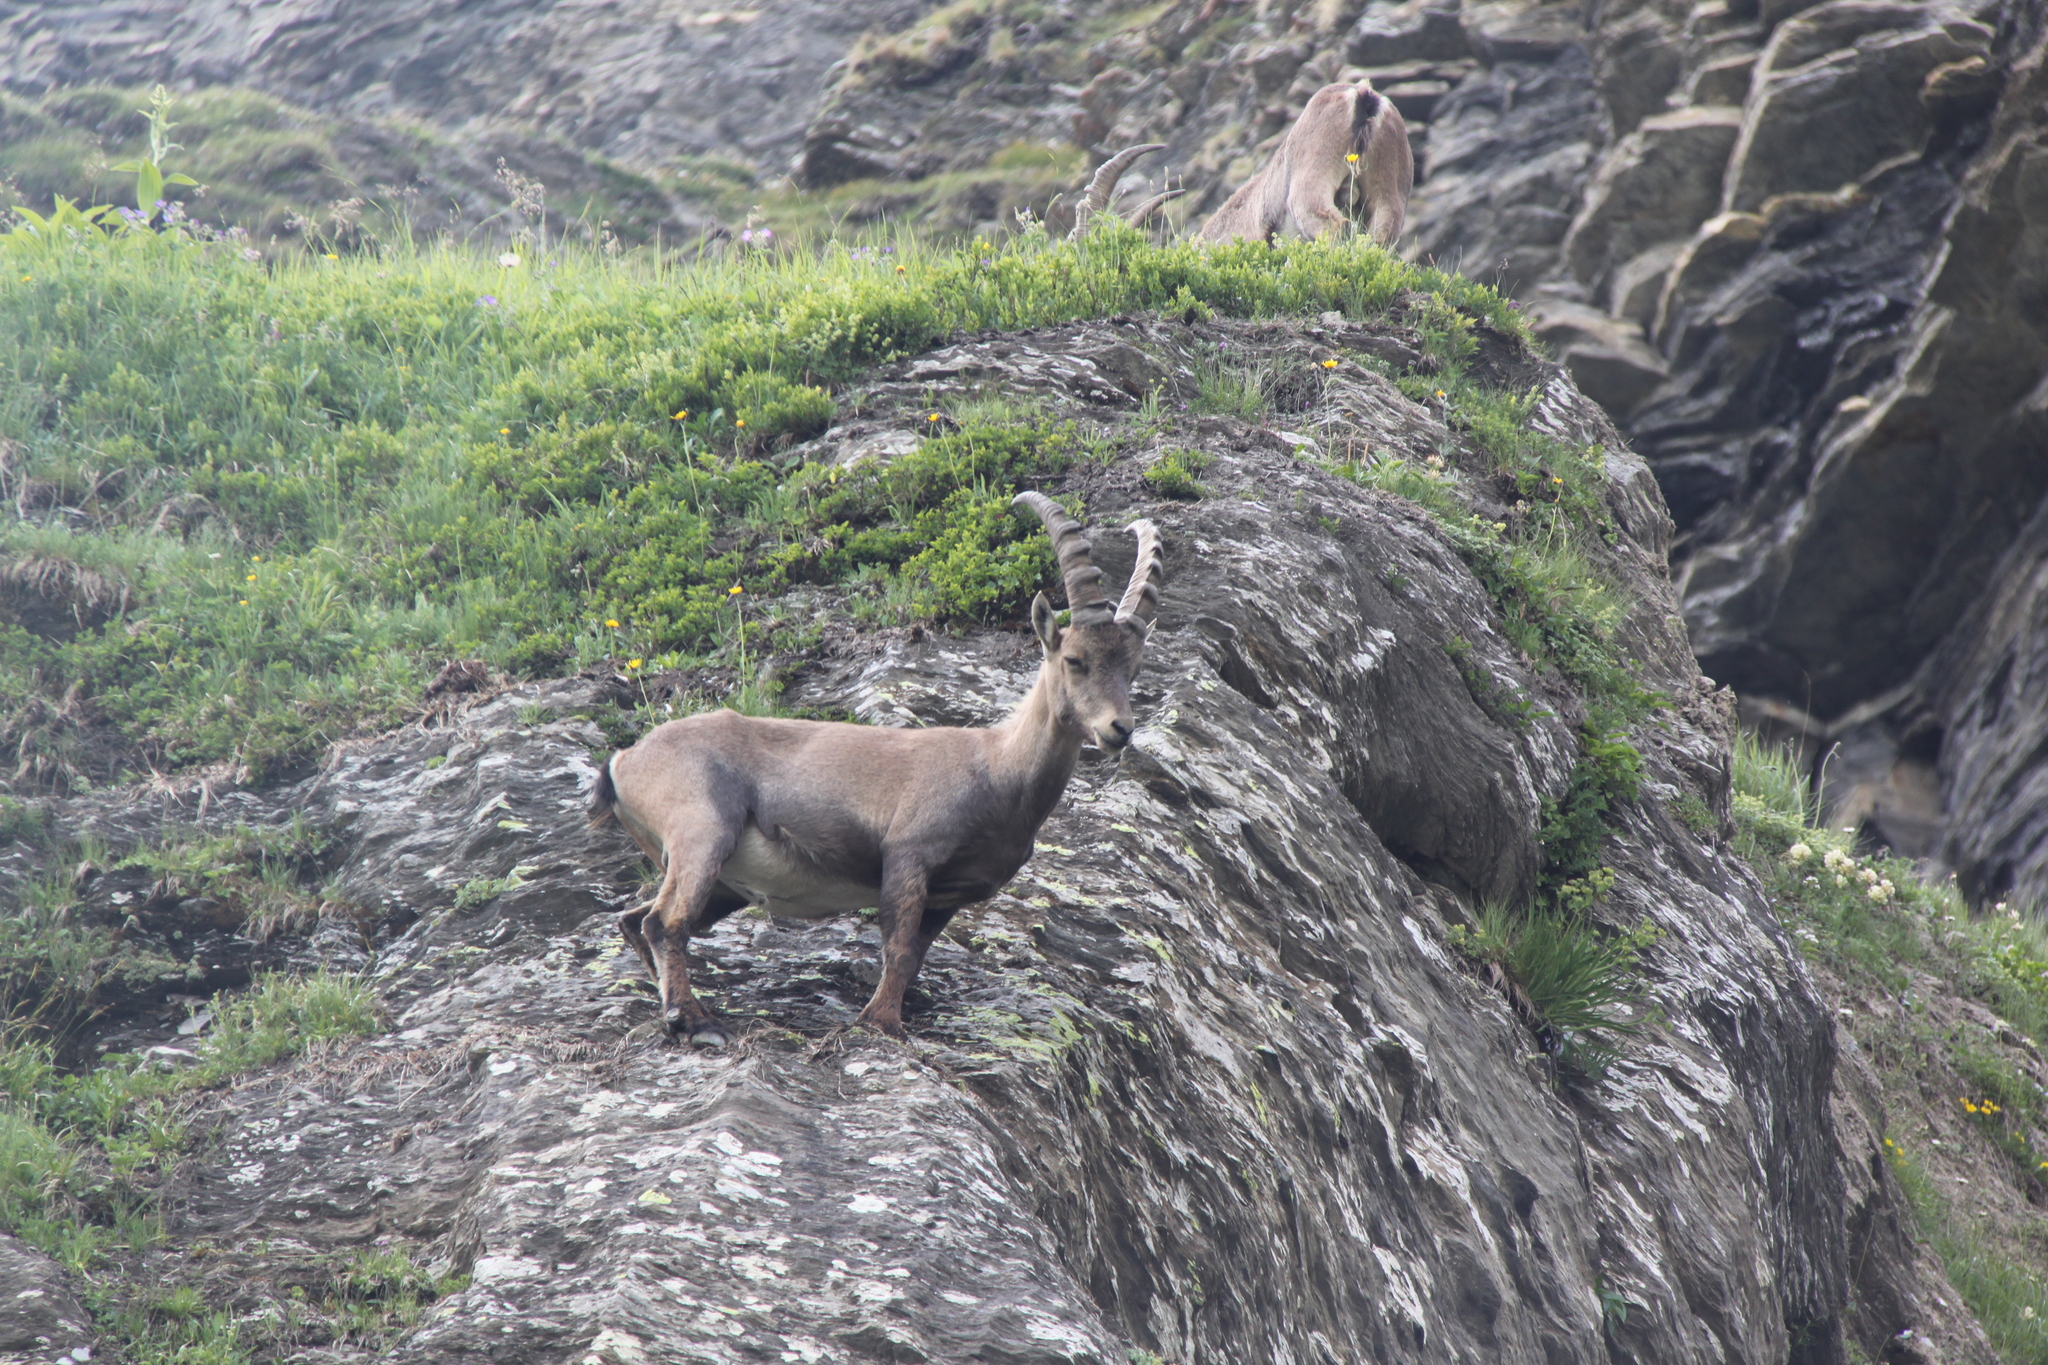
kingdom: Animalia
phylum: Chordata
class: Mammalia
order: Artiodactyla
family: Bovidae
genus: Capra
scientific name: Capra ibex
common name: Alpine ibex
